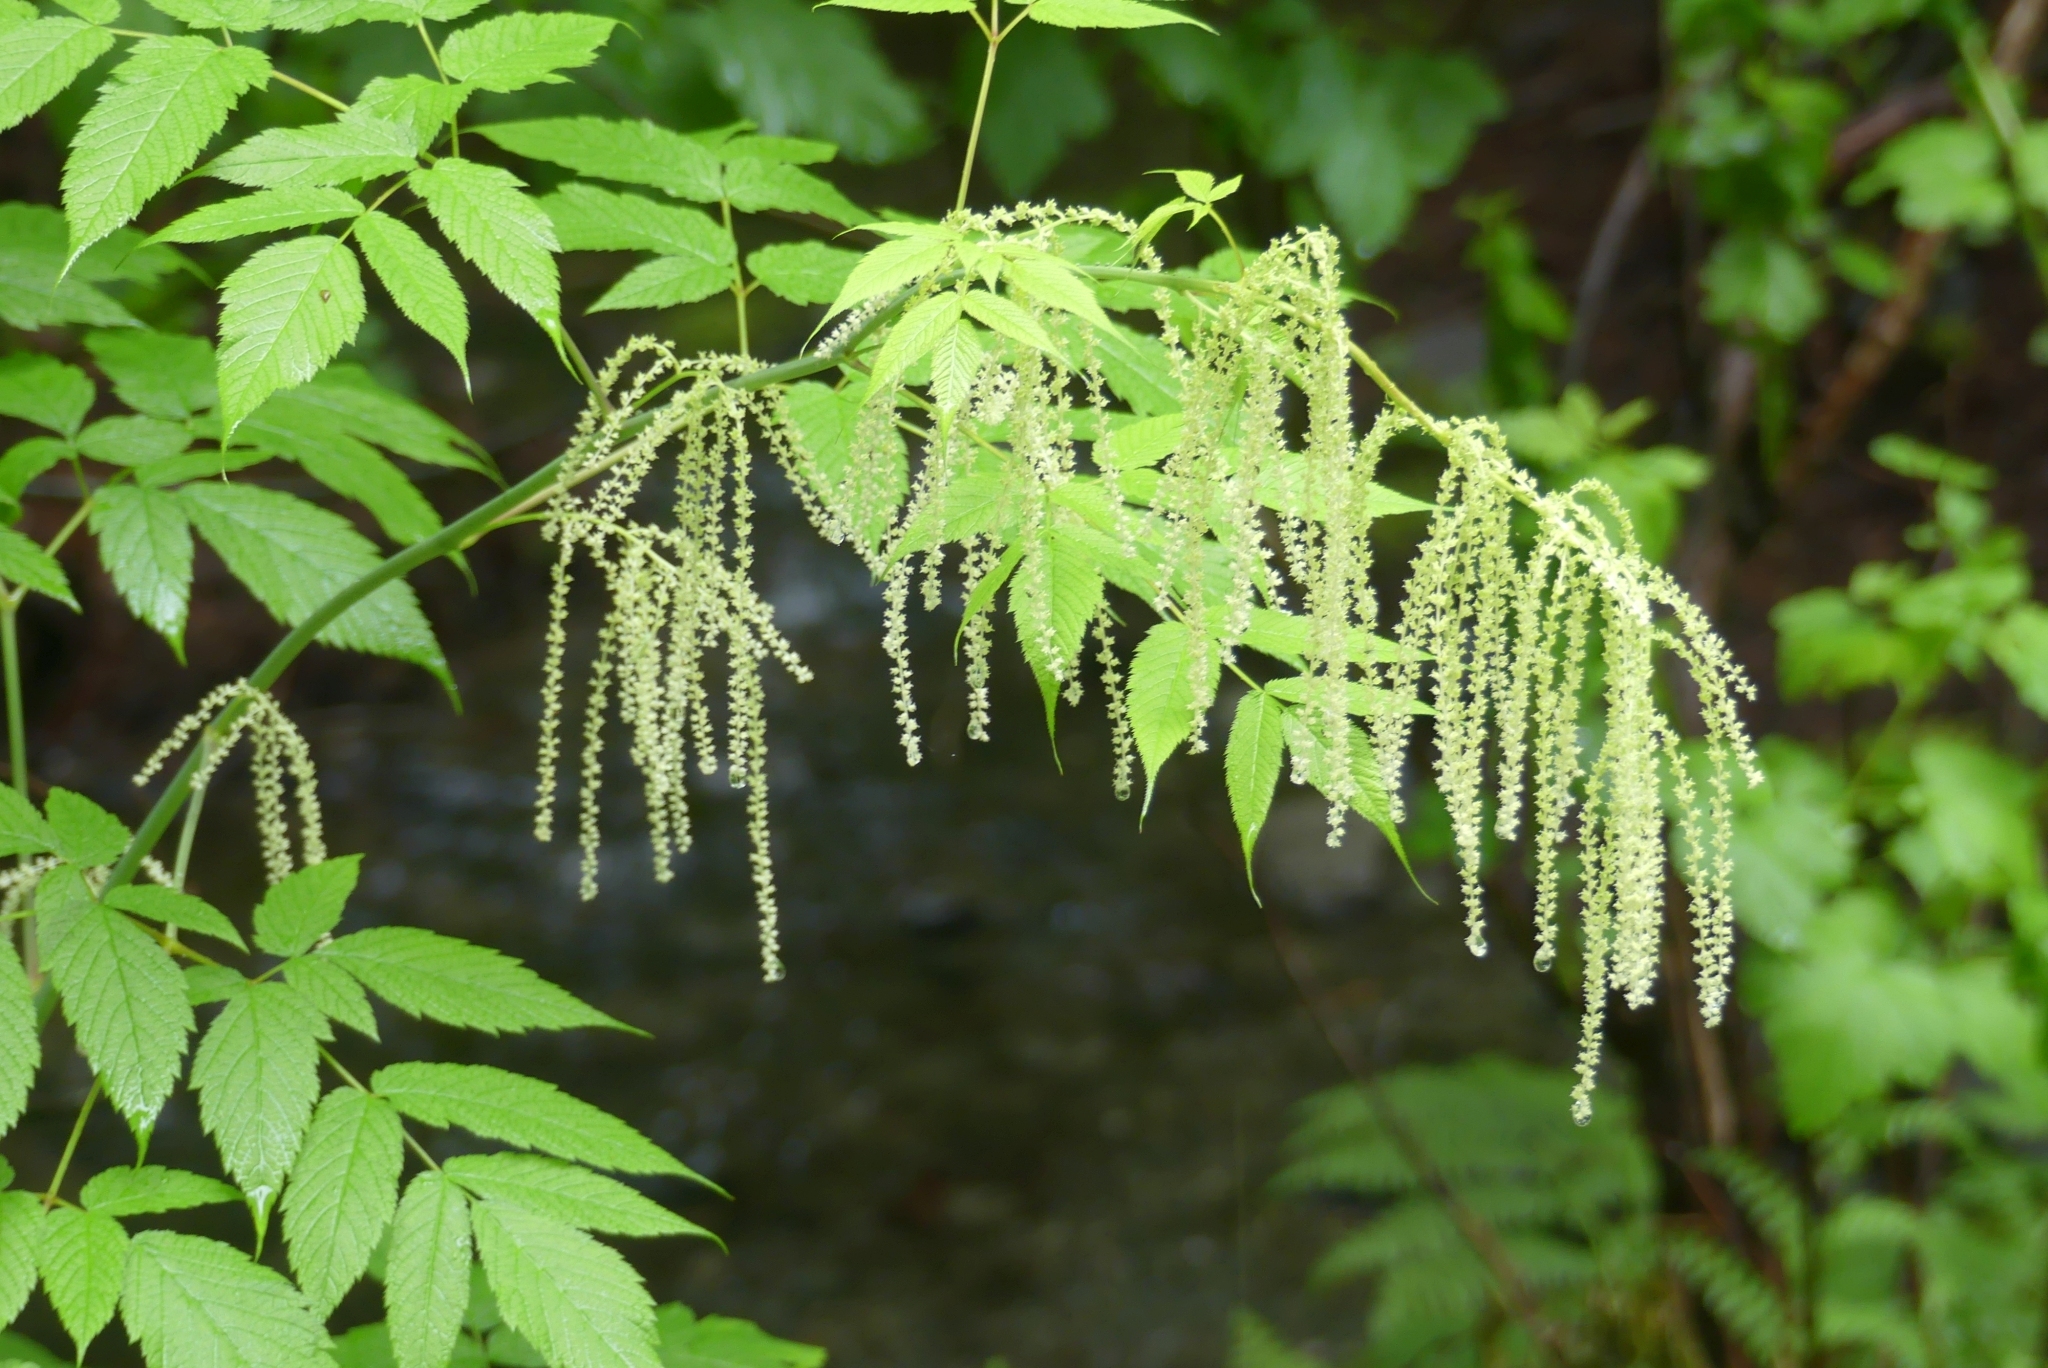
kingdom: Plantae
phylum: Tracheophyta
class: Magnoliopsida
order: Rosales
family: Rosaceae
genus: Aruncus
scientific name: Aruncus dioicus
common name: Buck's-beard
